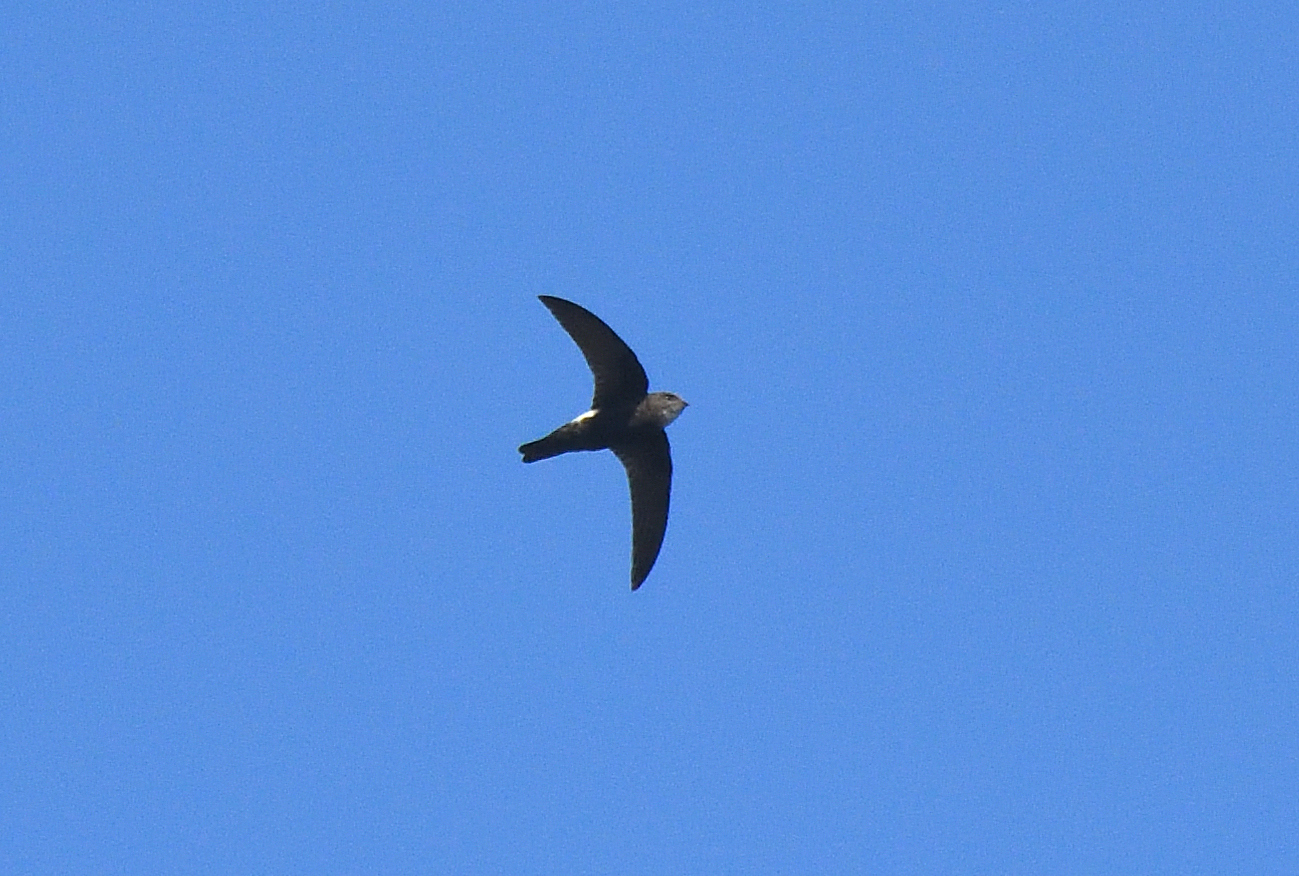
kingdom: Animalia
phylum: Chordata
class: Aves
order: Apodiformes
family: Apodidae
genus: Apus
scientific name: Apus affinis
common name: Little swift
